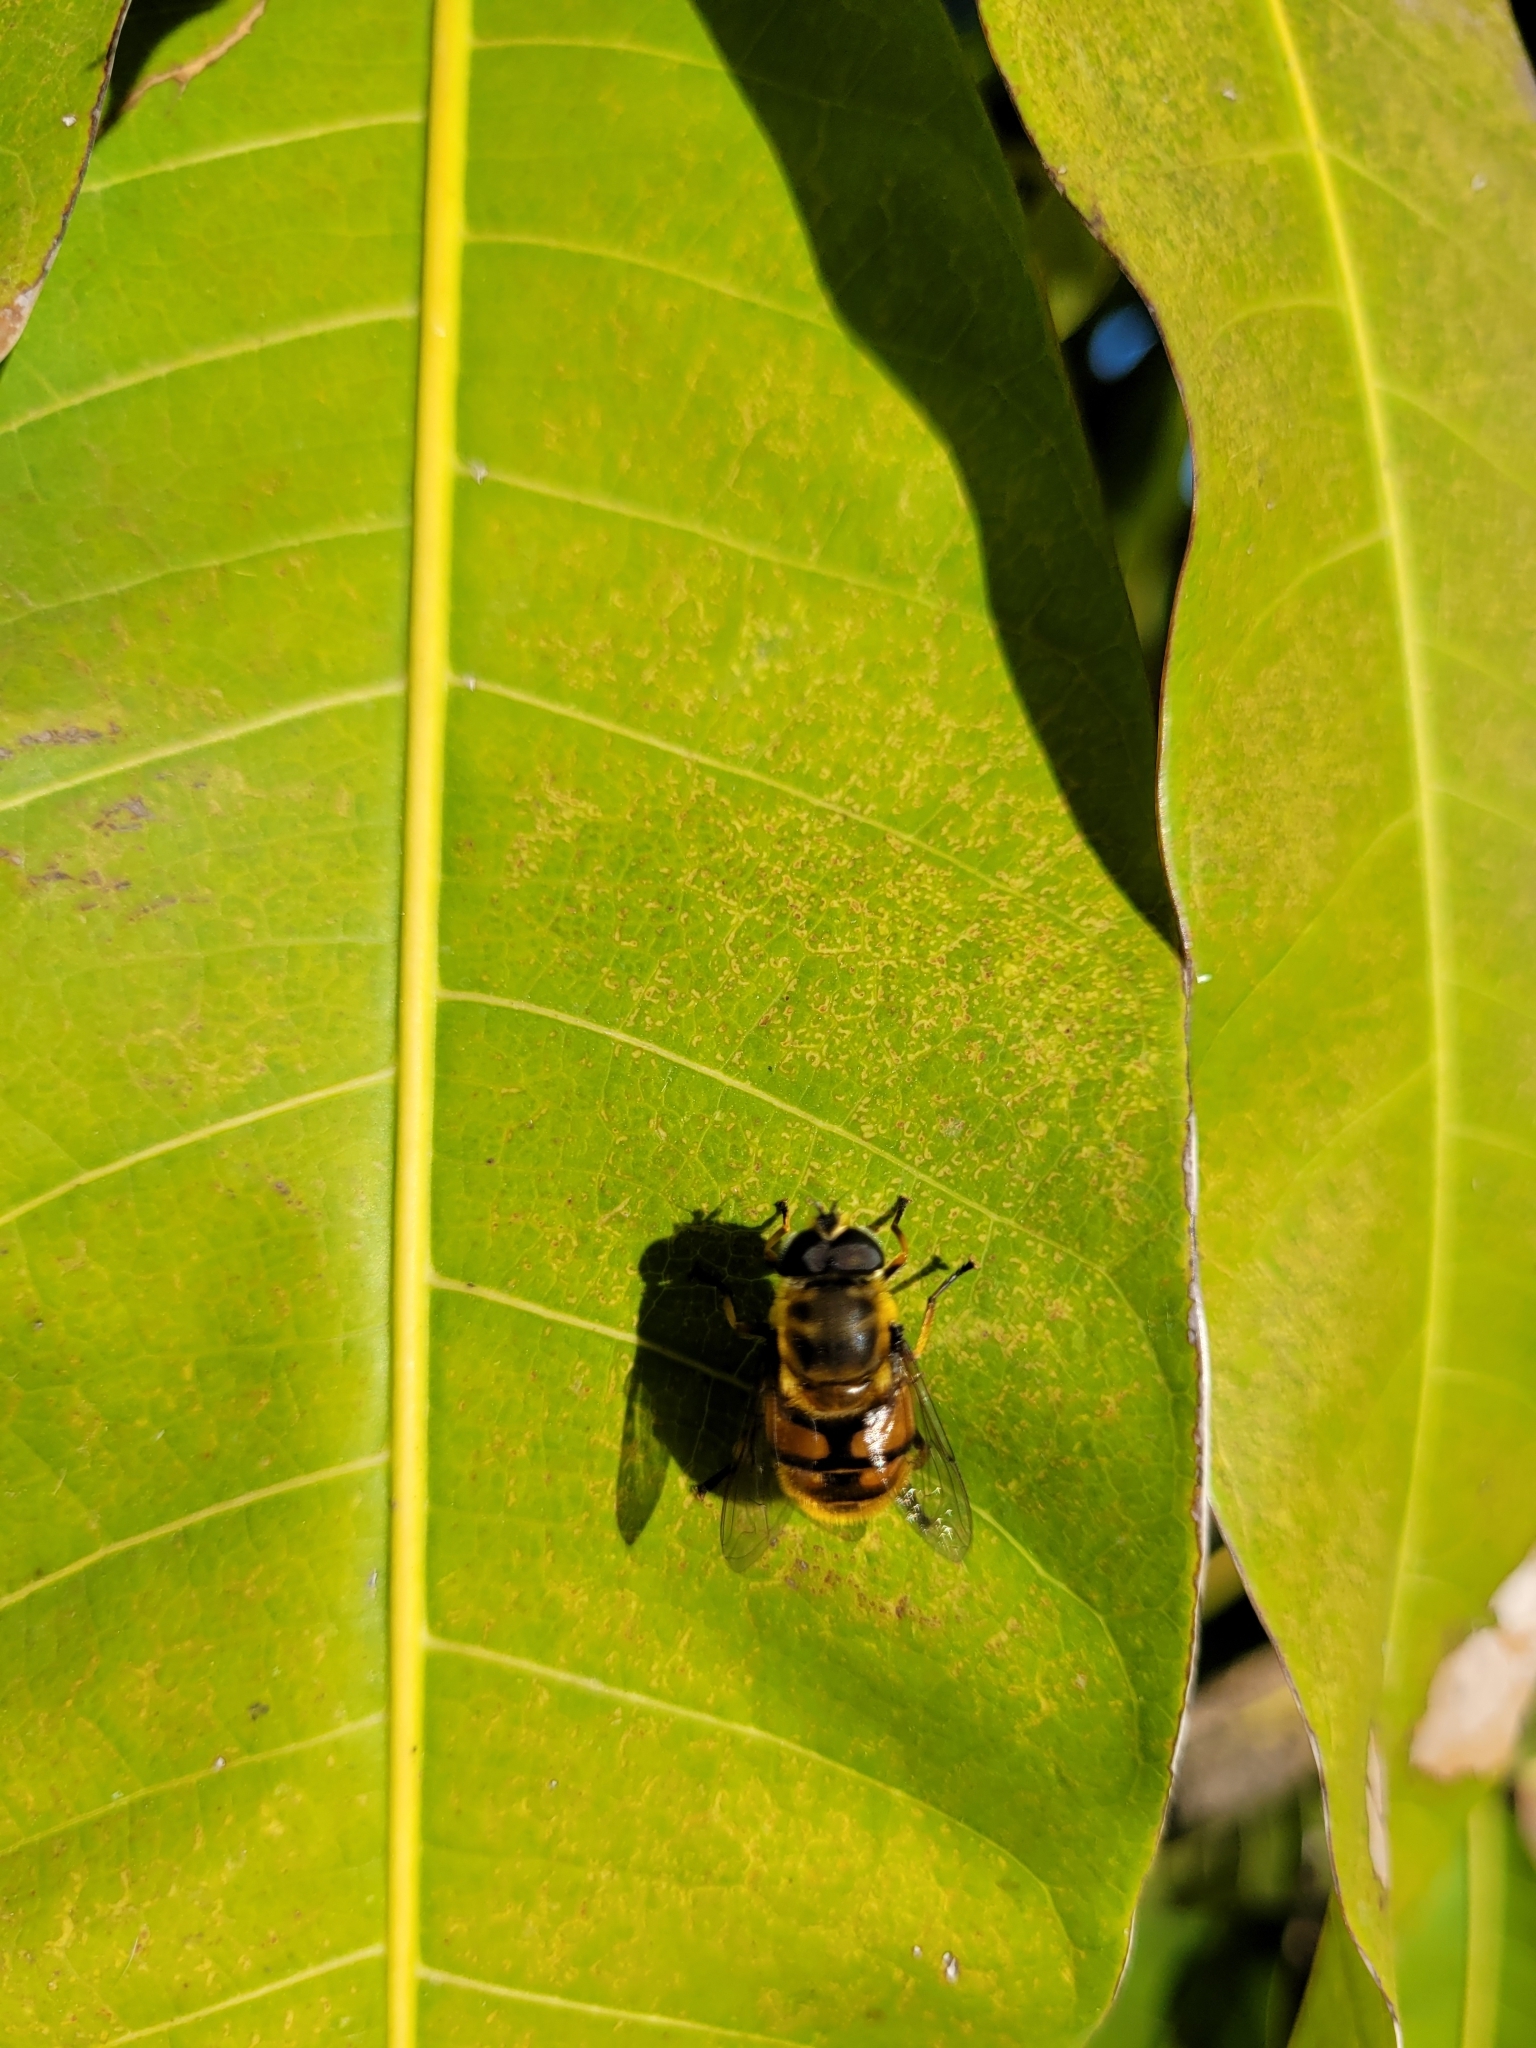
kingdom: Animalia
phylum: Arthropoda
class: Insecta
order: Diptera
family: Syrphidae
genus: Myathropa
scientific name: Myathropa florea
